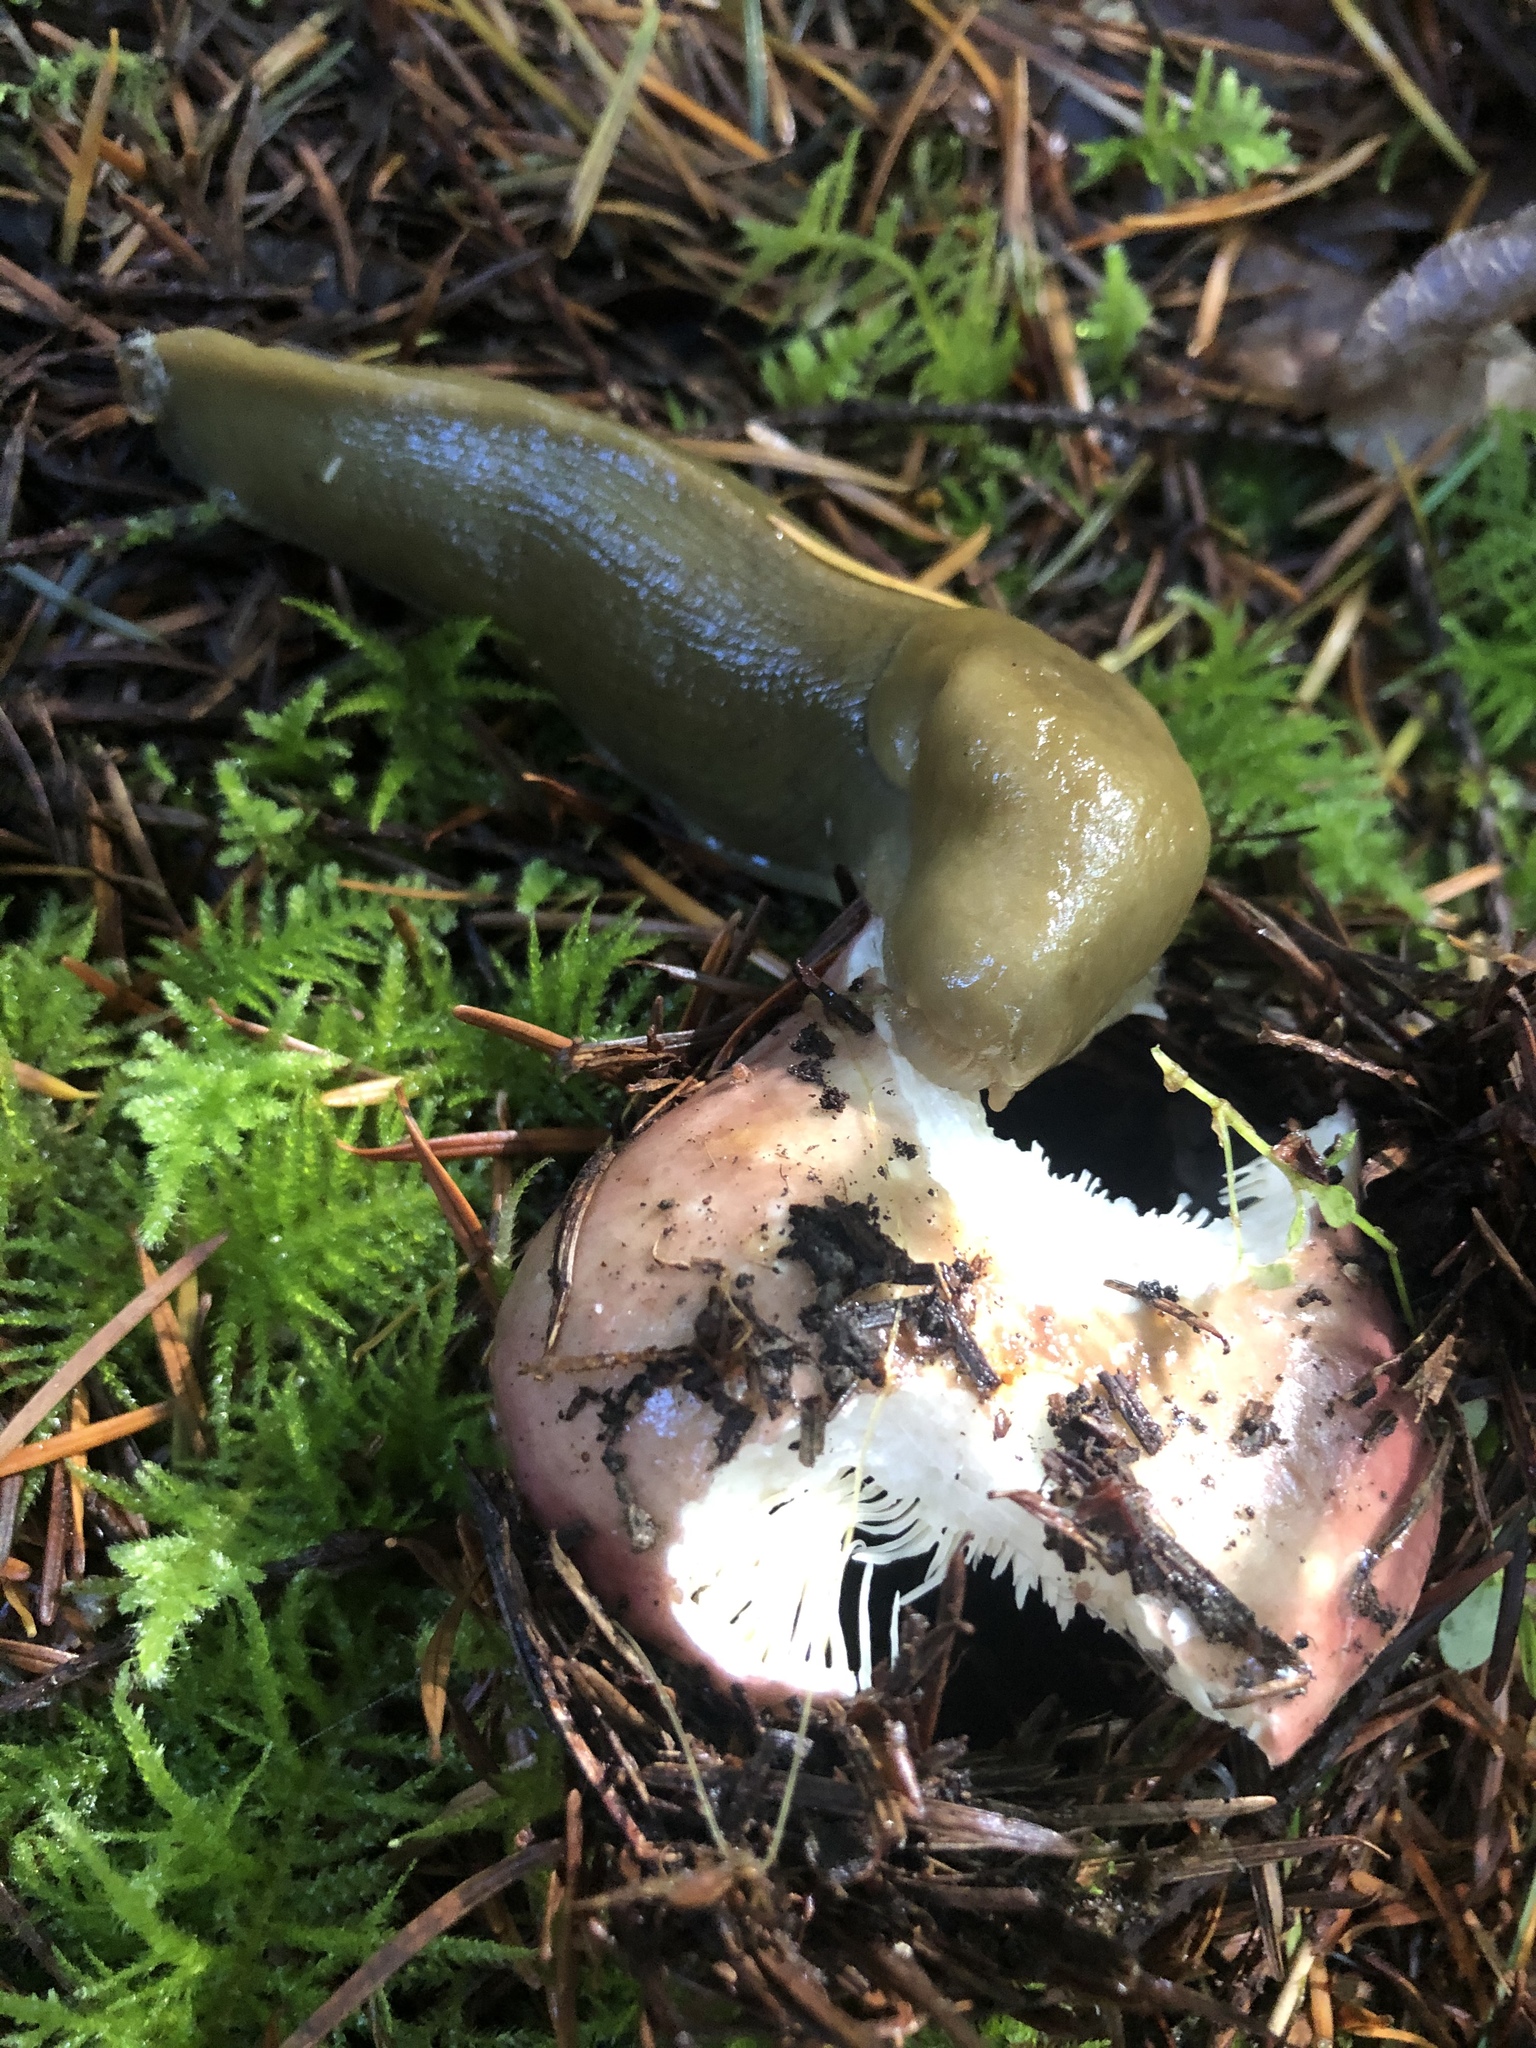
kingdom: Animalia
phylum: Mollusca
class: Gastropoda
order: Stylommatophora
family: Ariolimacidae
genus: Ariolimax
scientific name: Ariolimax columbianus
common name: Pacific banana slug
